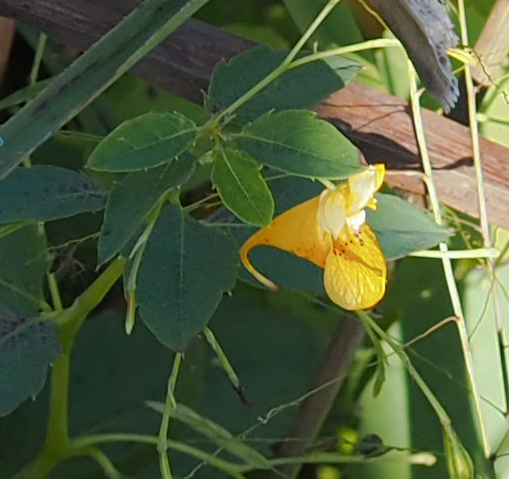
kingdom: Plantae
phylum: Tracheophyta
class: Magnoliopsida
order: Ericales
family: Balsaminaceae
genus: Impatiens
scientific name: Impatiens capensis
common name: Orange balsam
